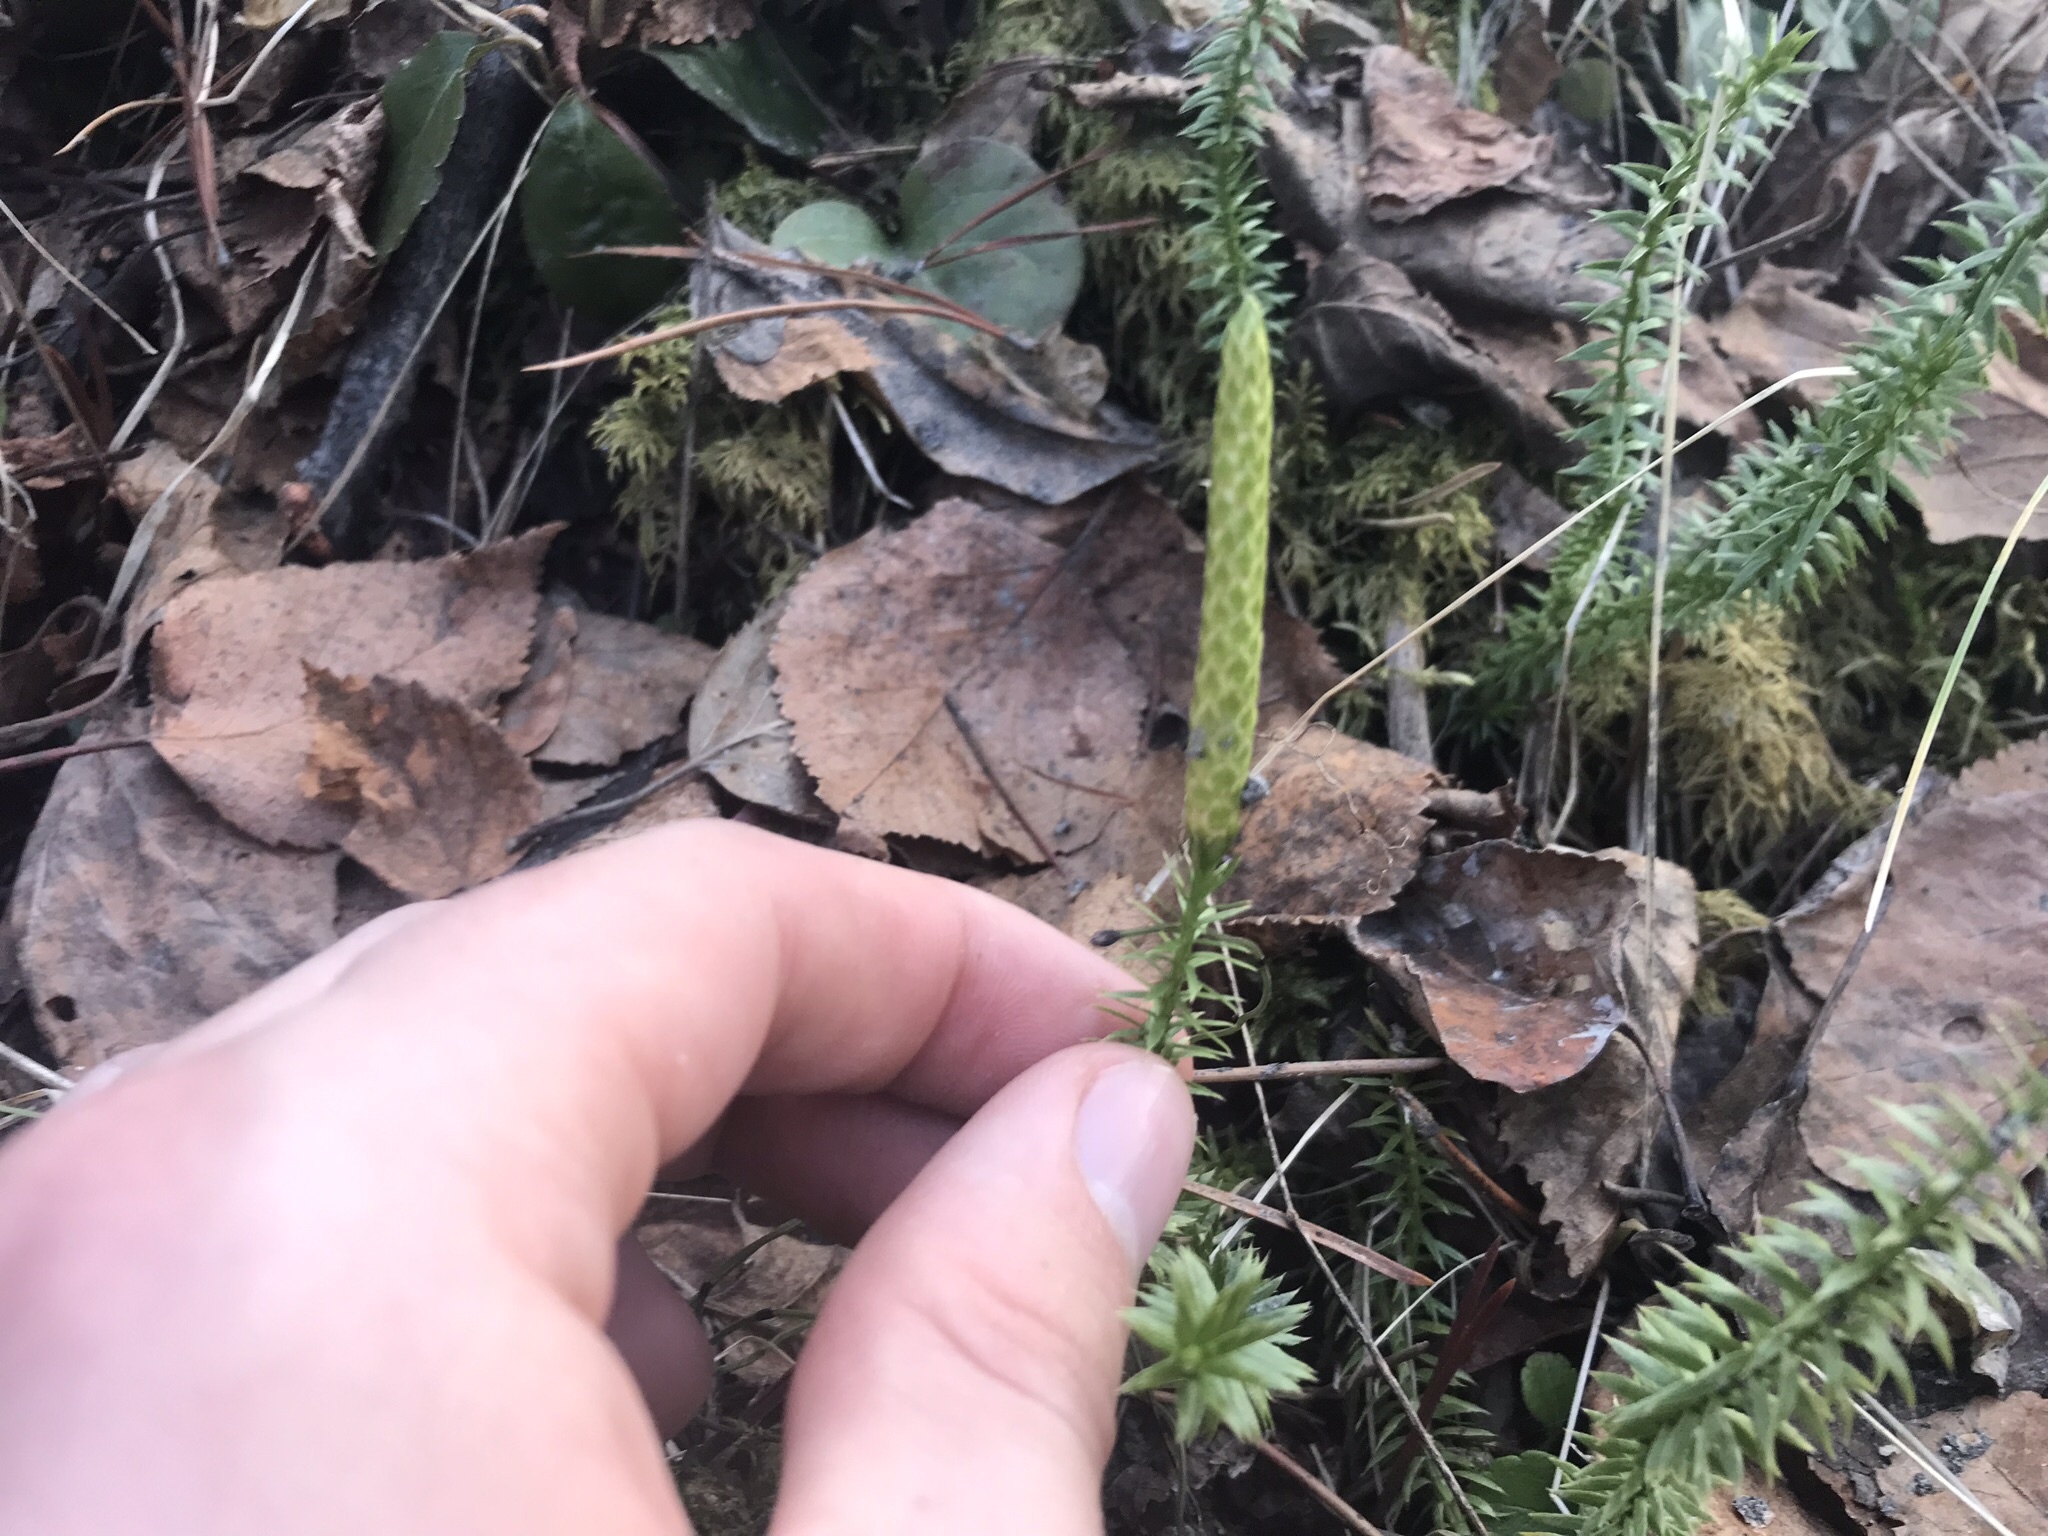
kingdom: Plantae
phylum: Tracheophyta
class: Lycopodiopsida
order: Lycopodiales
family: Lycopodiaceae
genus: Spinulum
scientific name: Spinulum annotinum
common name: Interrupted club-moss
